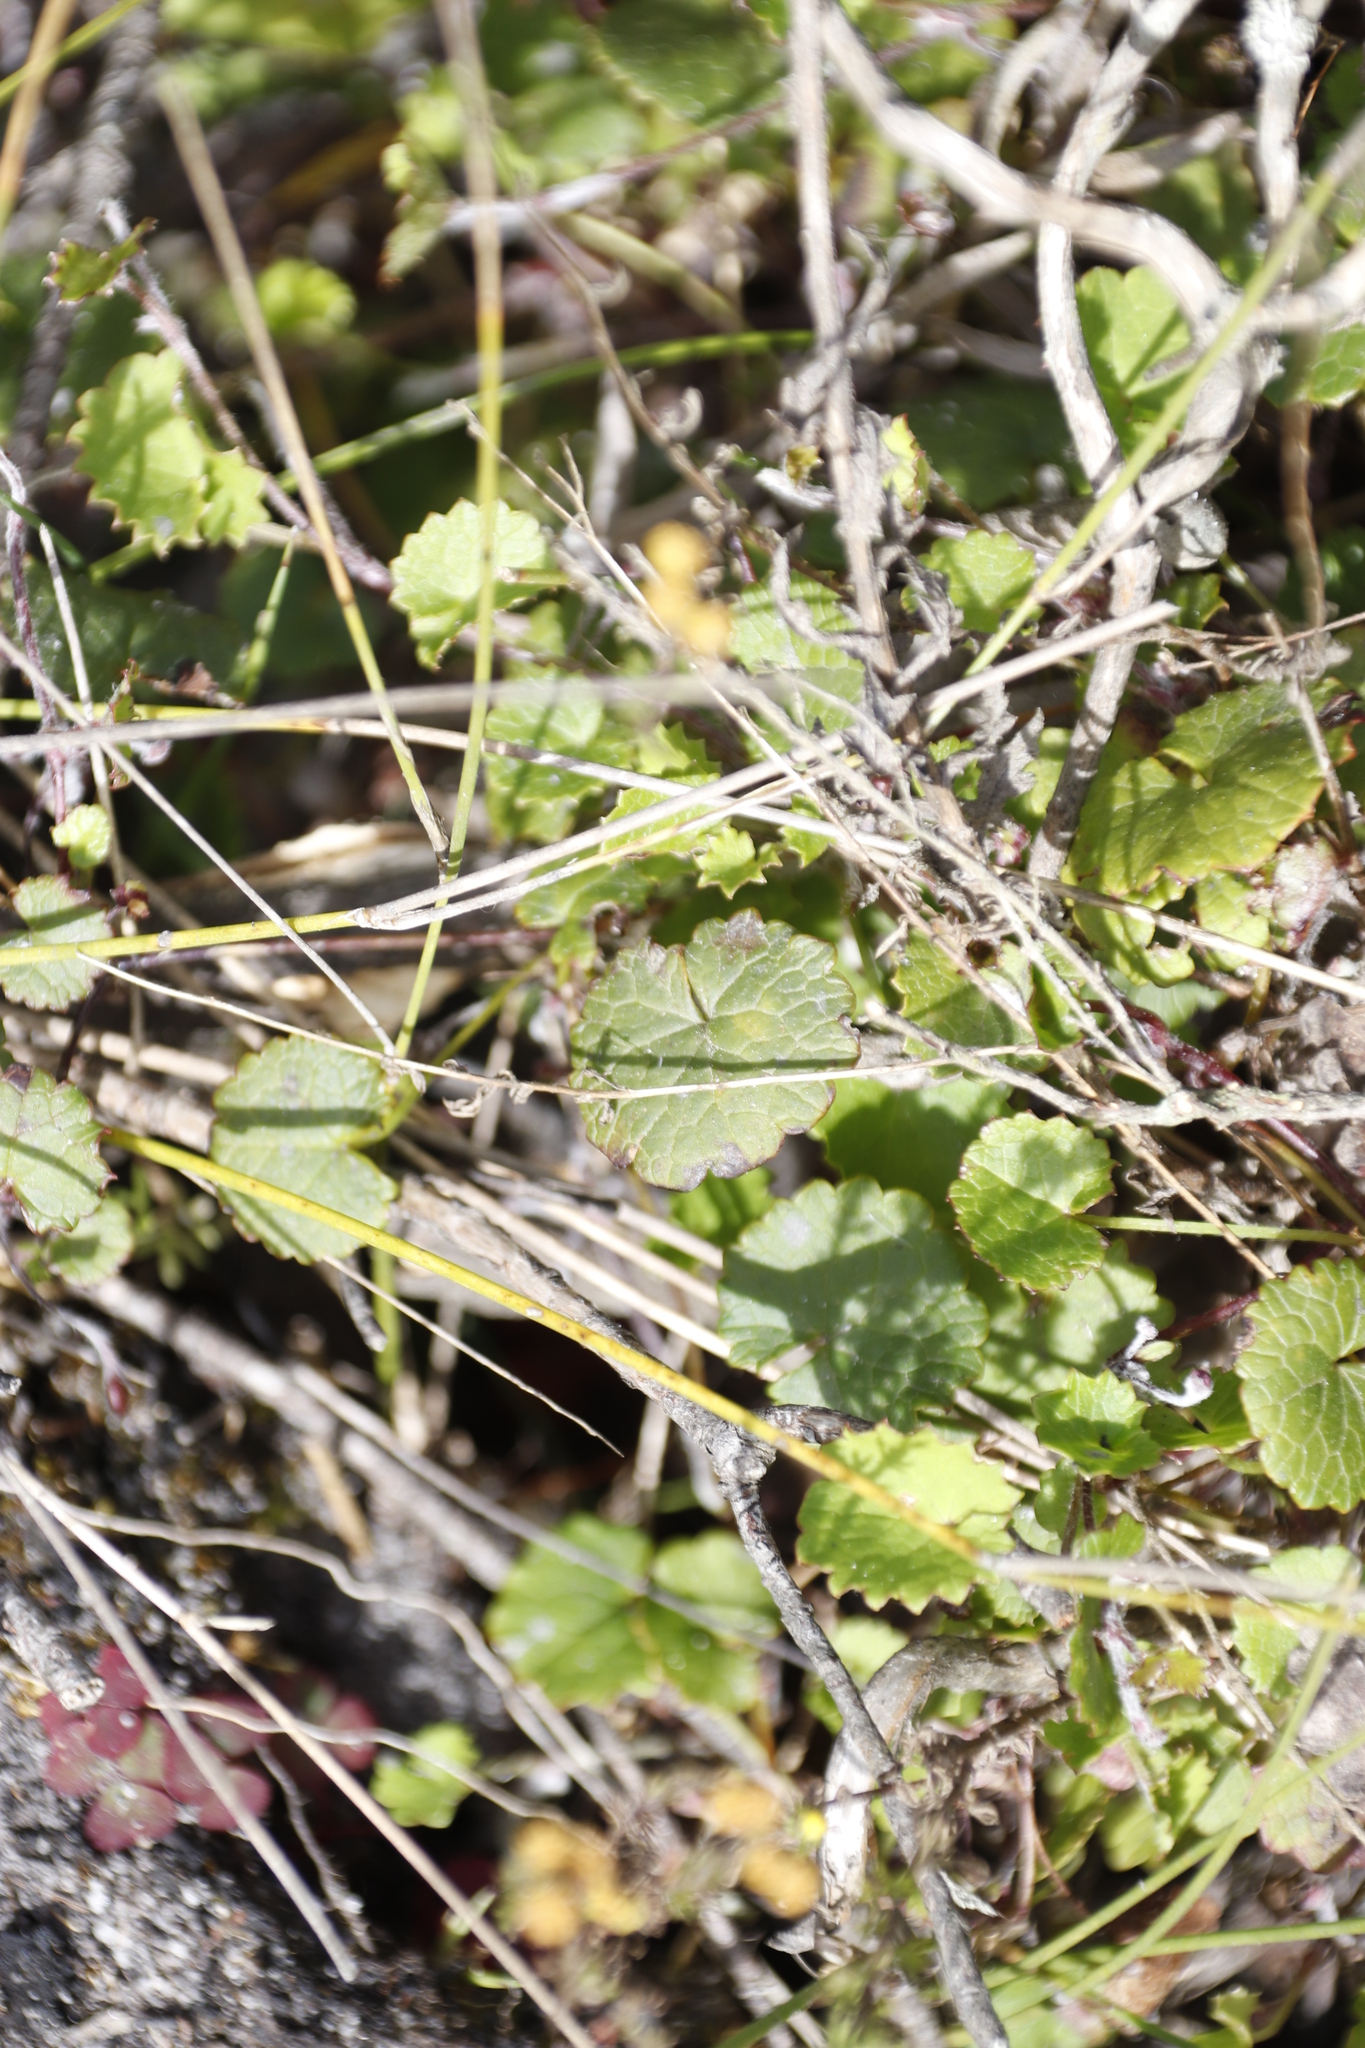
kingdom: Plantae
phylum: Tracheophyta
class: Magnoliopsida
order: Apiales
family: Apiaceae
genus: Centella
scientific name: Centella eriantha
